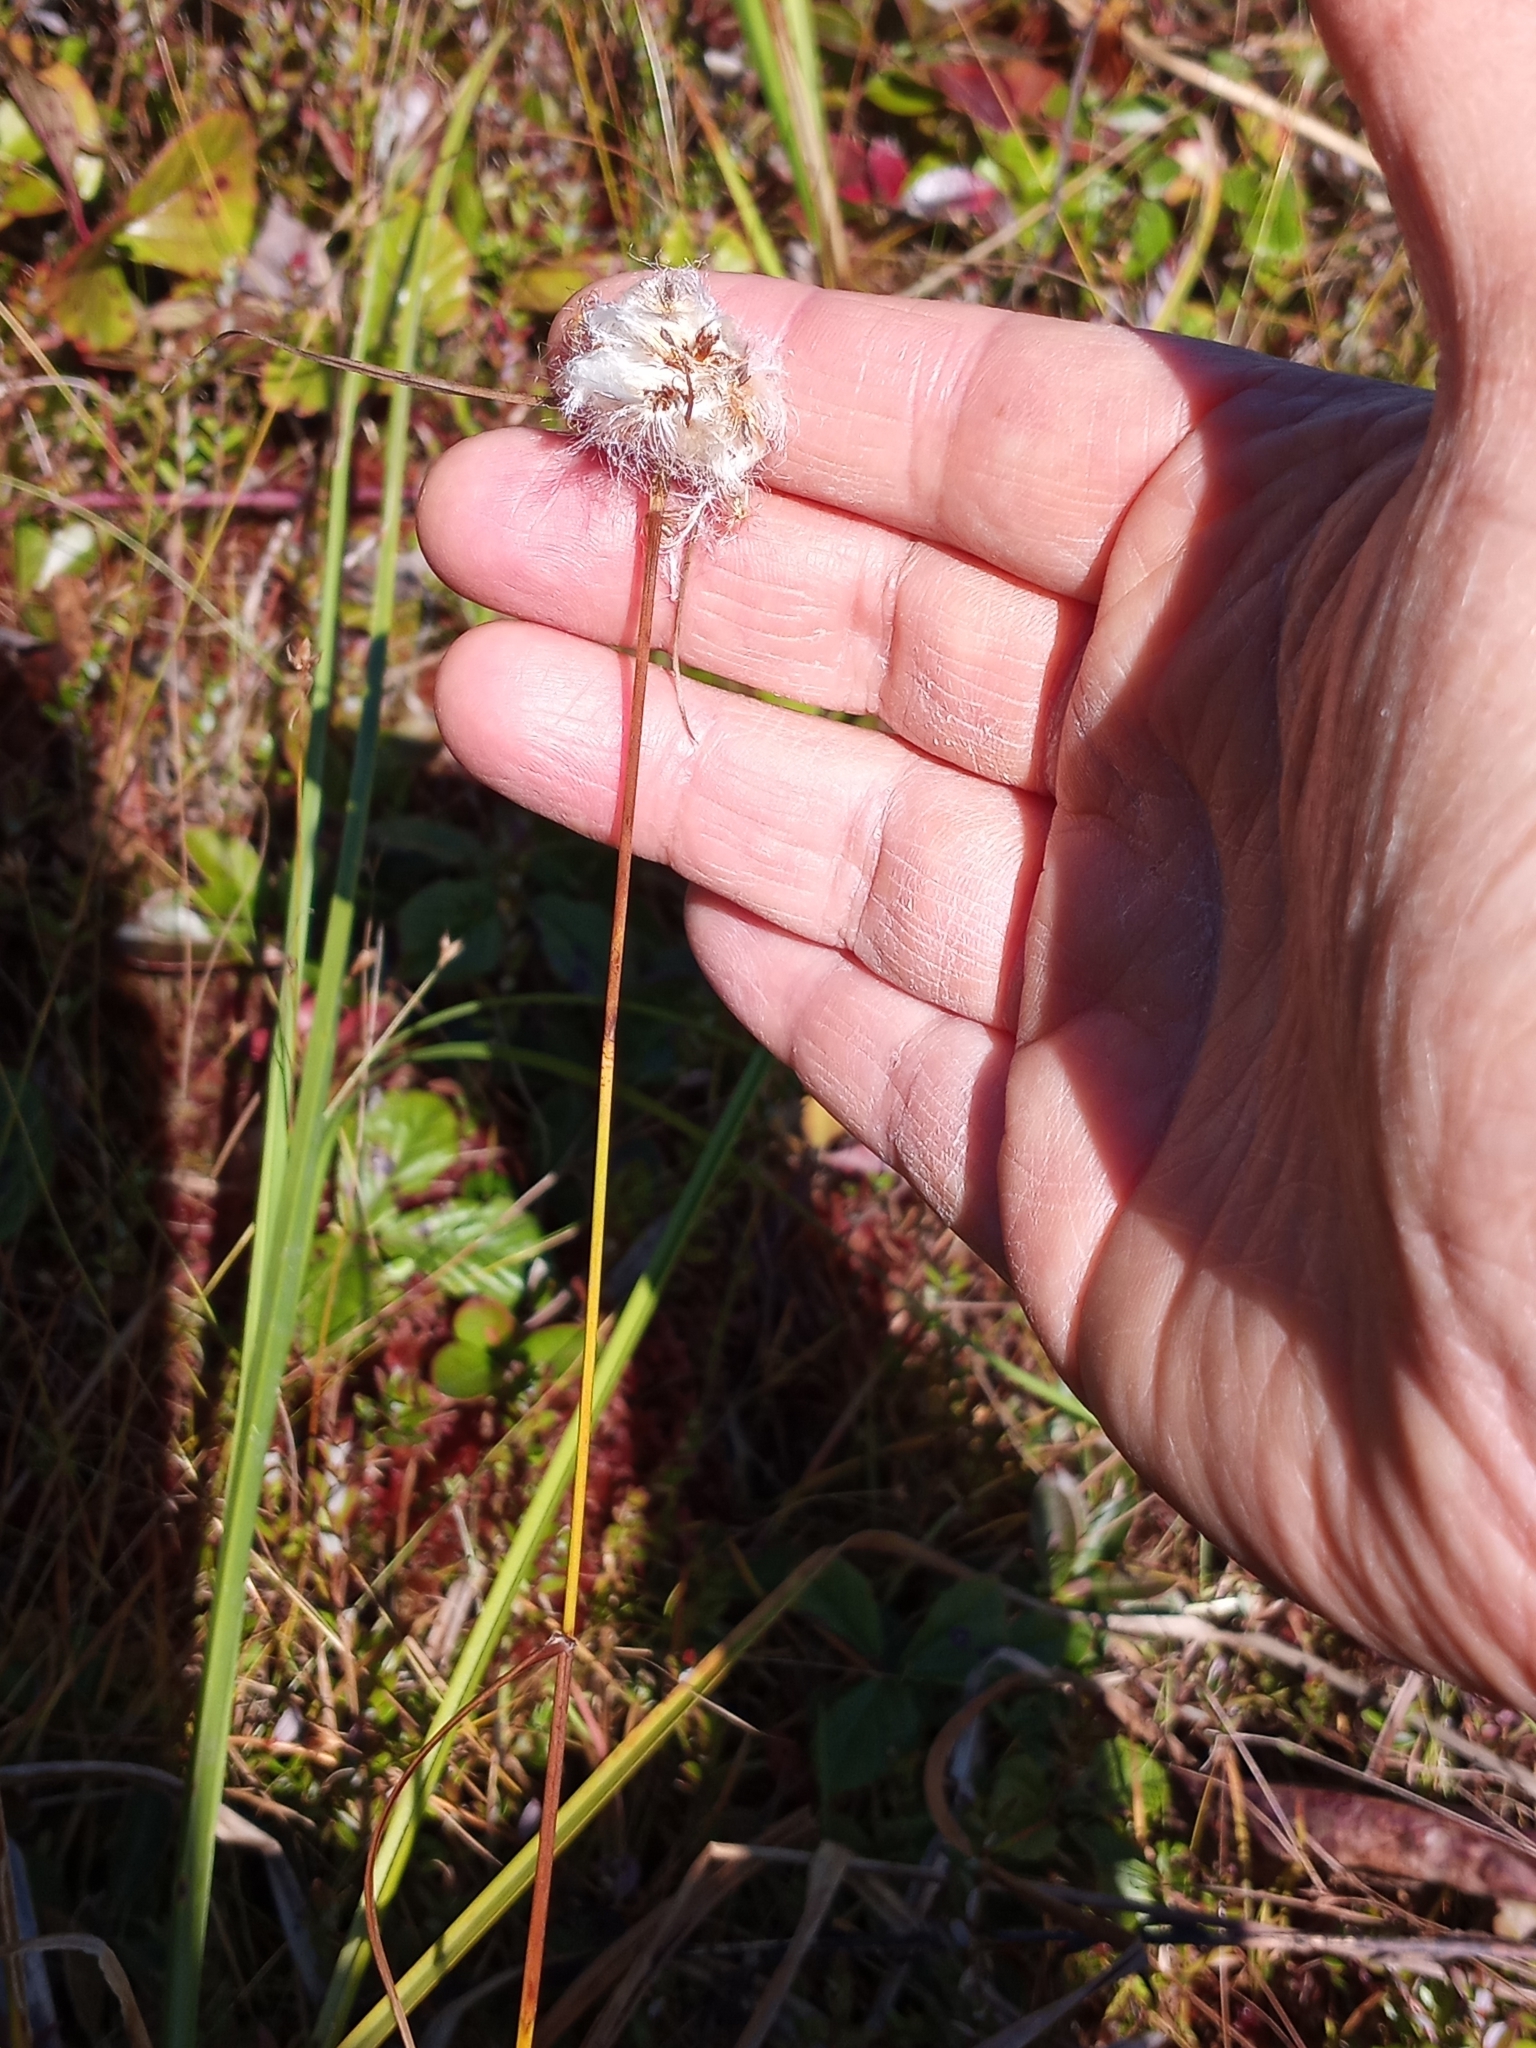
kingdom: Plantae
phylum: Tracheophyta
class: Liliopsida
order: Poales
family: Cyperaceae
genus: Eriophorum
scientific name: Eriophorum virginicum
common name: Tawny cottongrass
